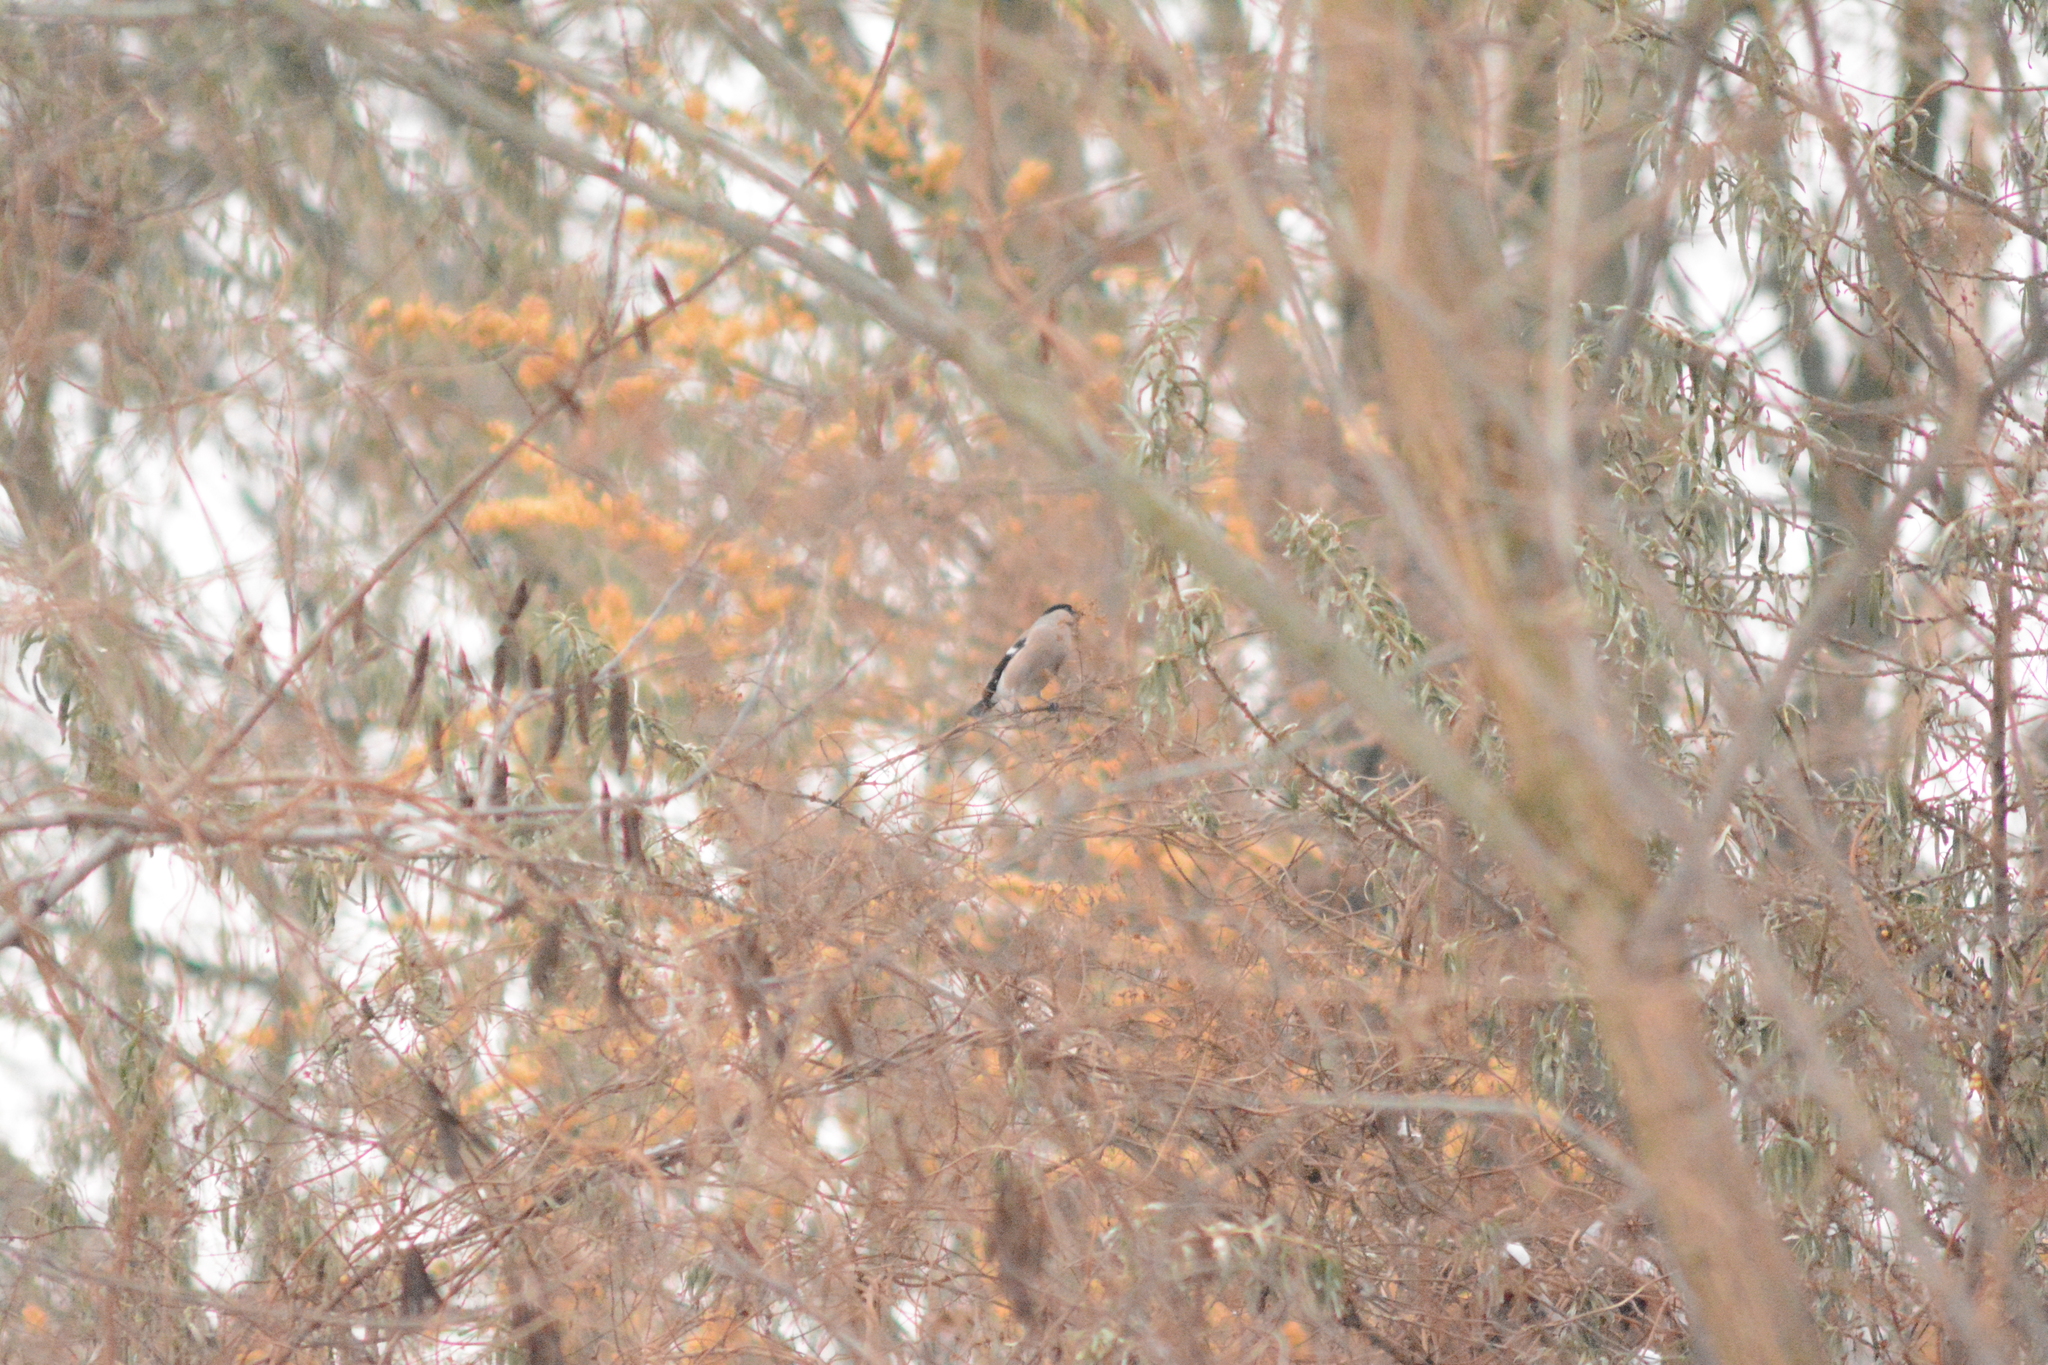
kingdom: Animalia
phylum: Chordata
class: Aves
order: Passeriformes
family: Fringillidae
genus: Pyrrhula
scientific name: Pyrrhula pyrrhula
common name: Eurasian bullfinch
